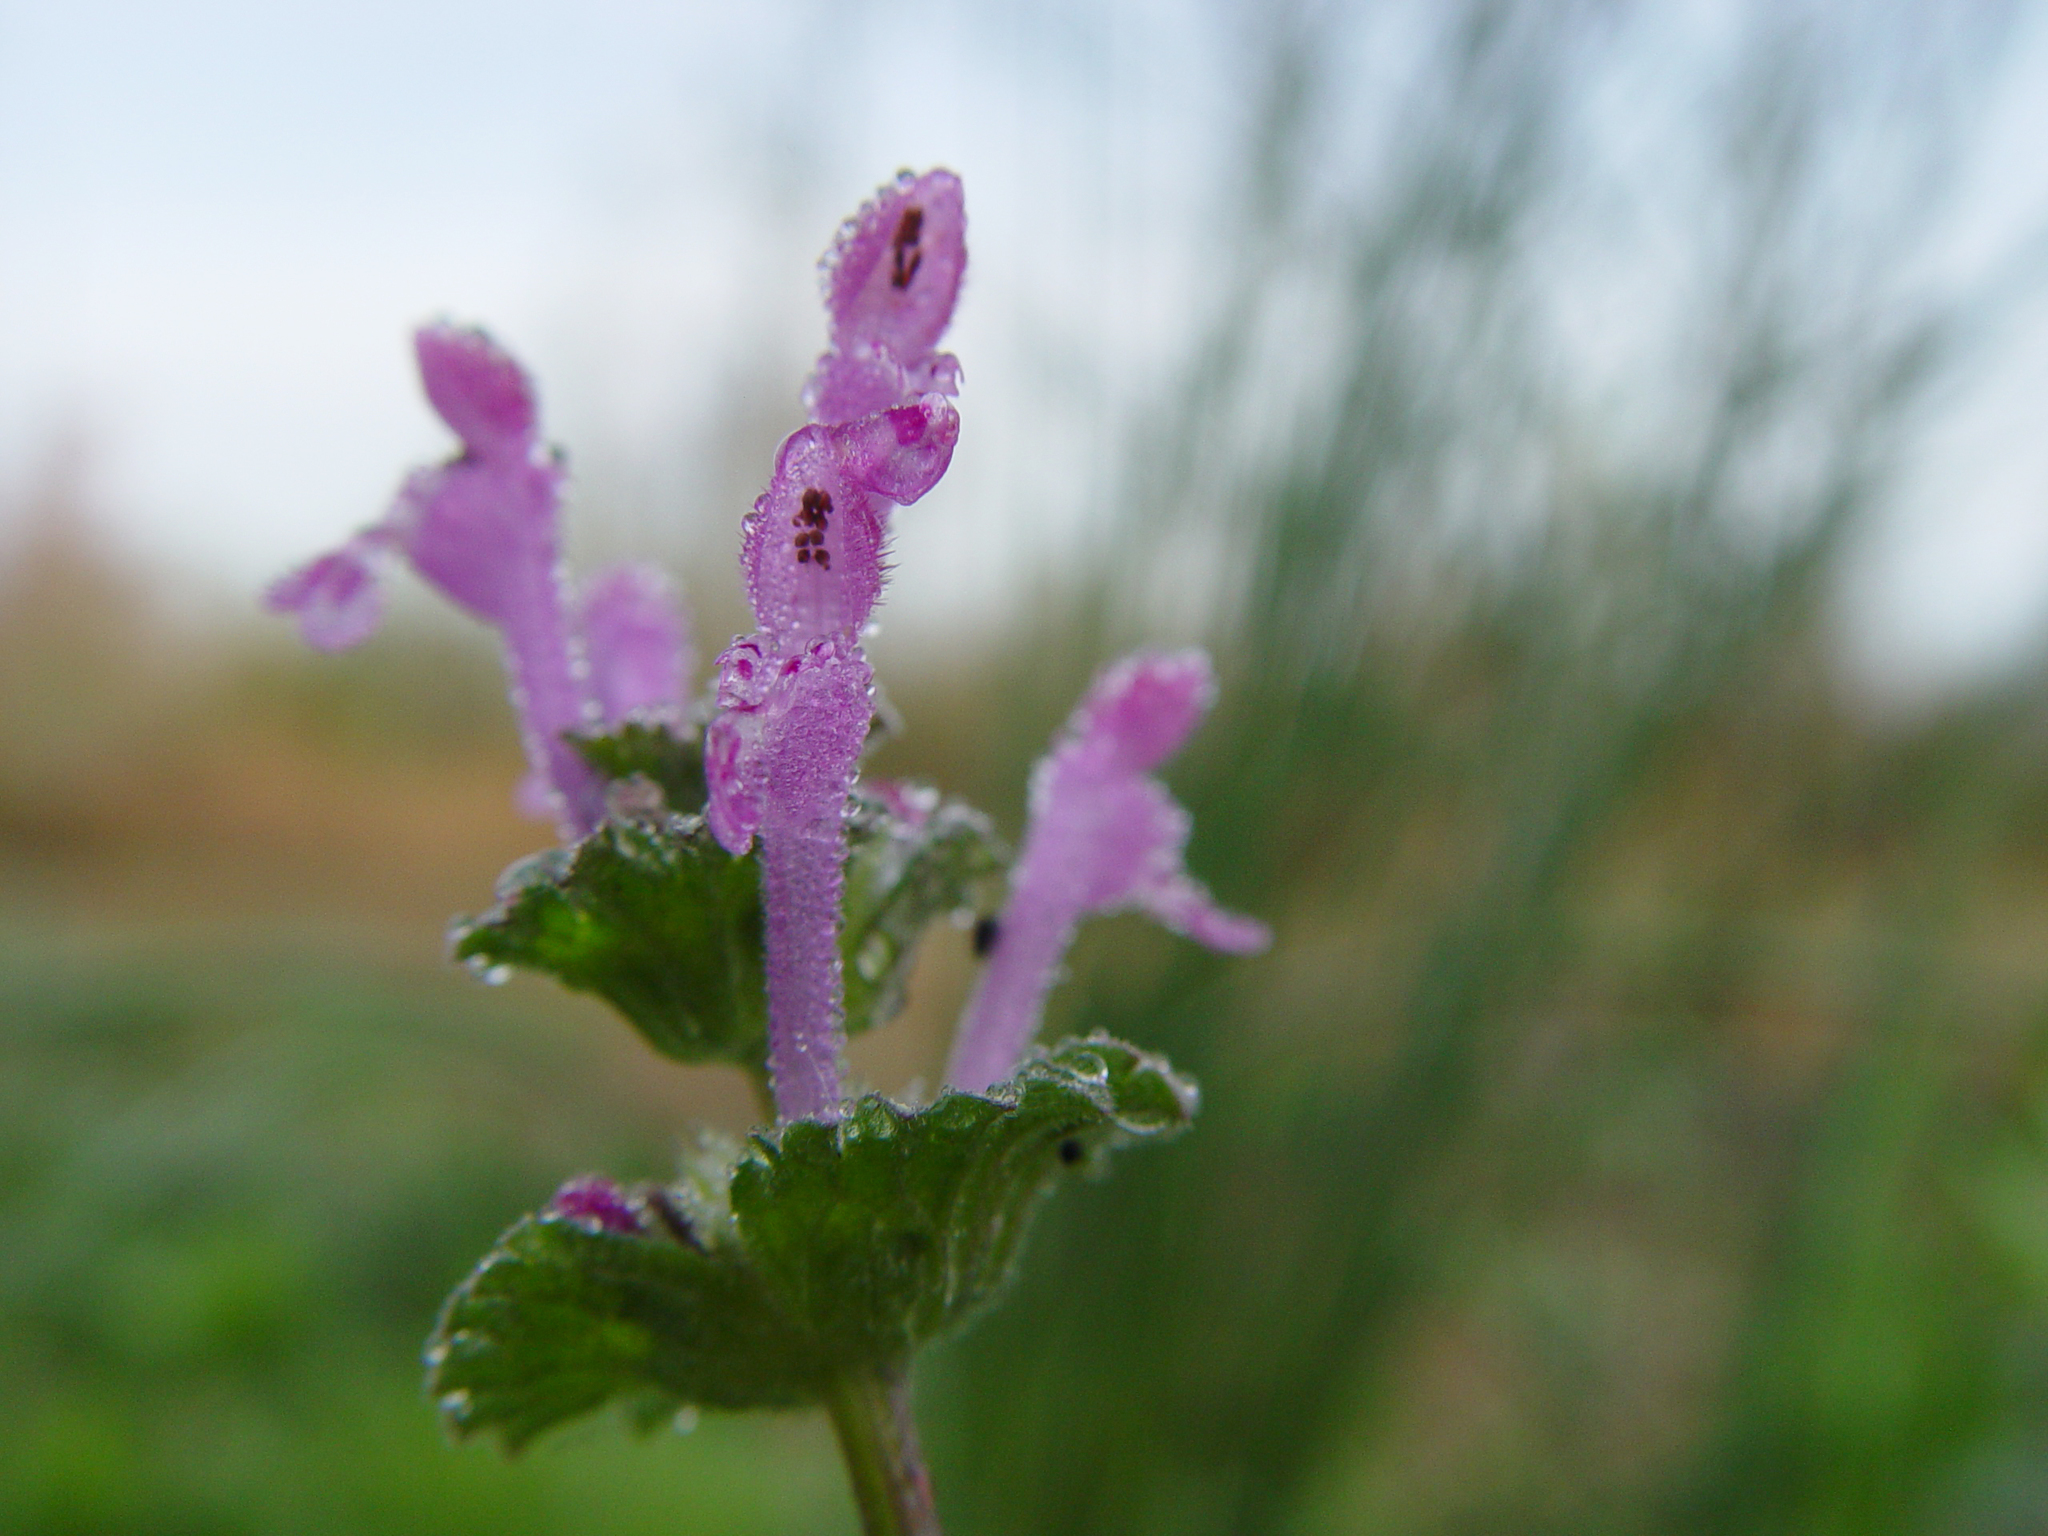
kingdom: Plantae
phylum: Tracheophyta
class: Magnoliopsida
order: Lamiales
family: Lamiaceae
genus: Lamium
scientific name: Lamium amplexicaule
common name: Henbit dead-nettle
